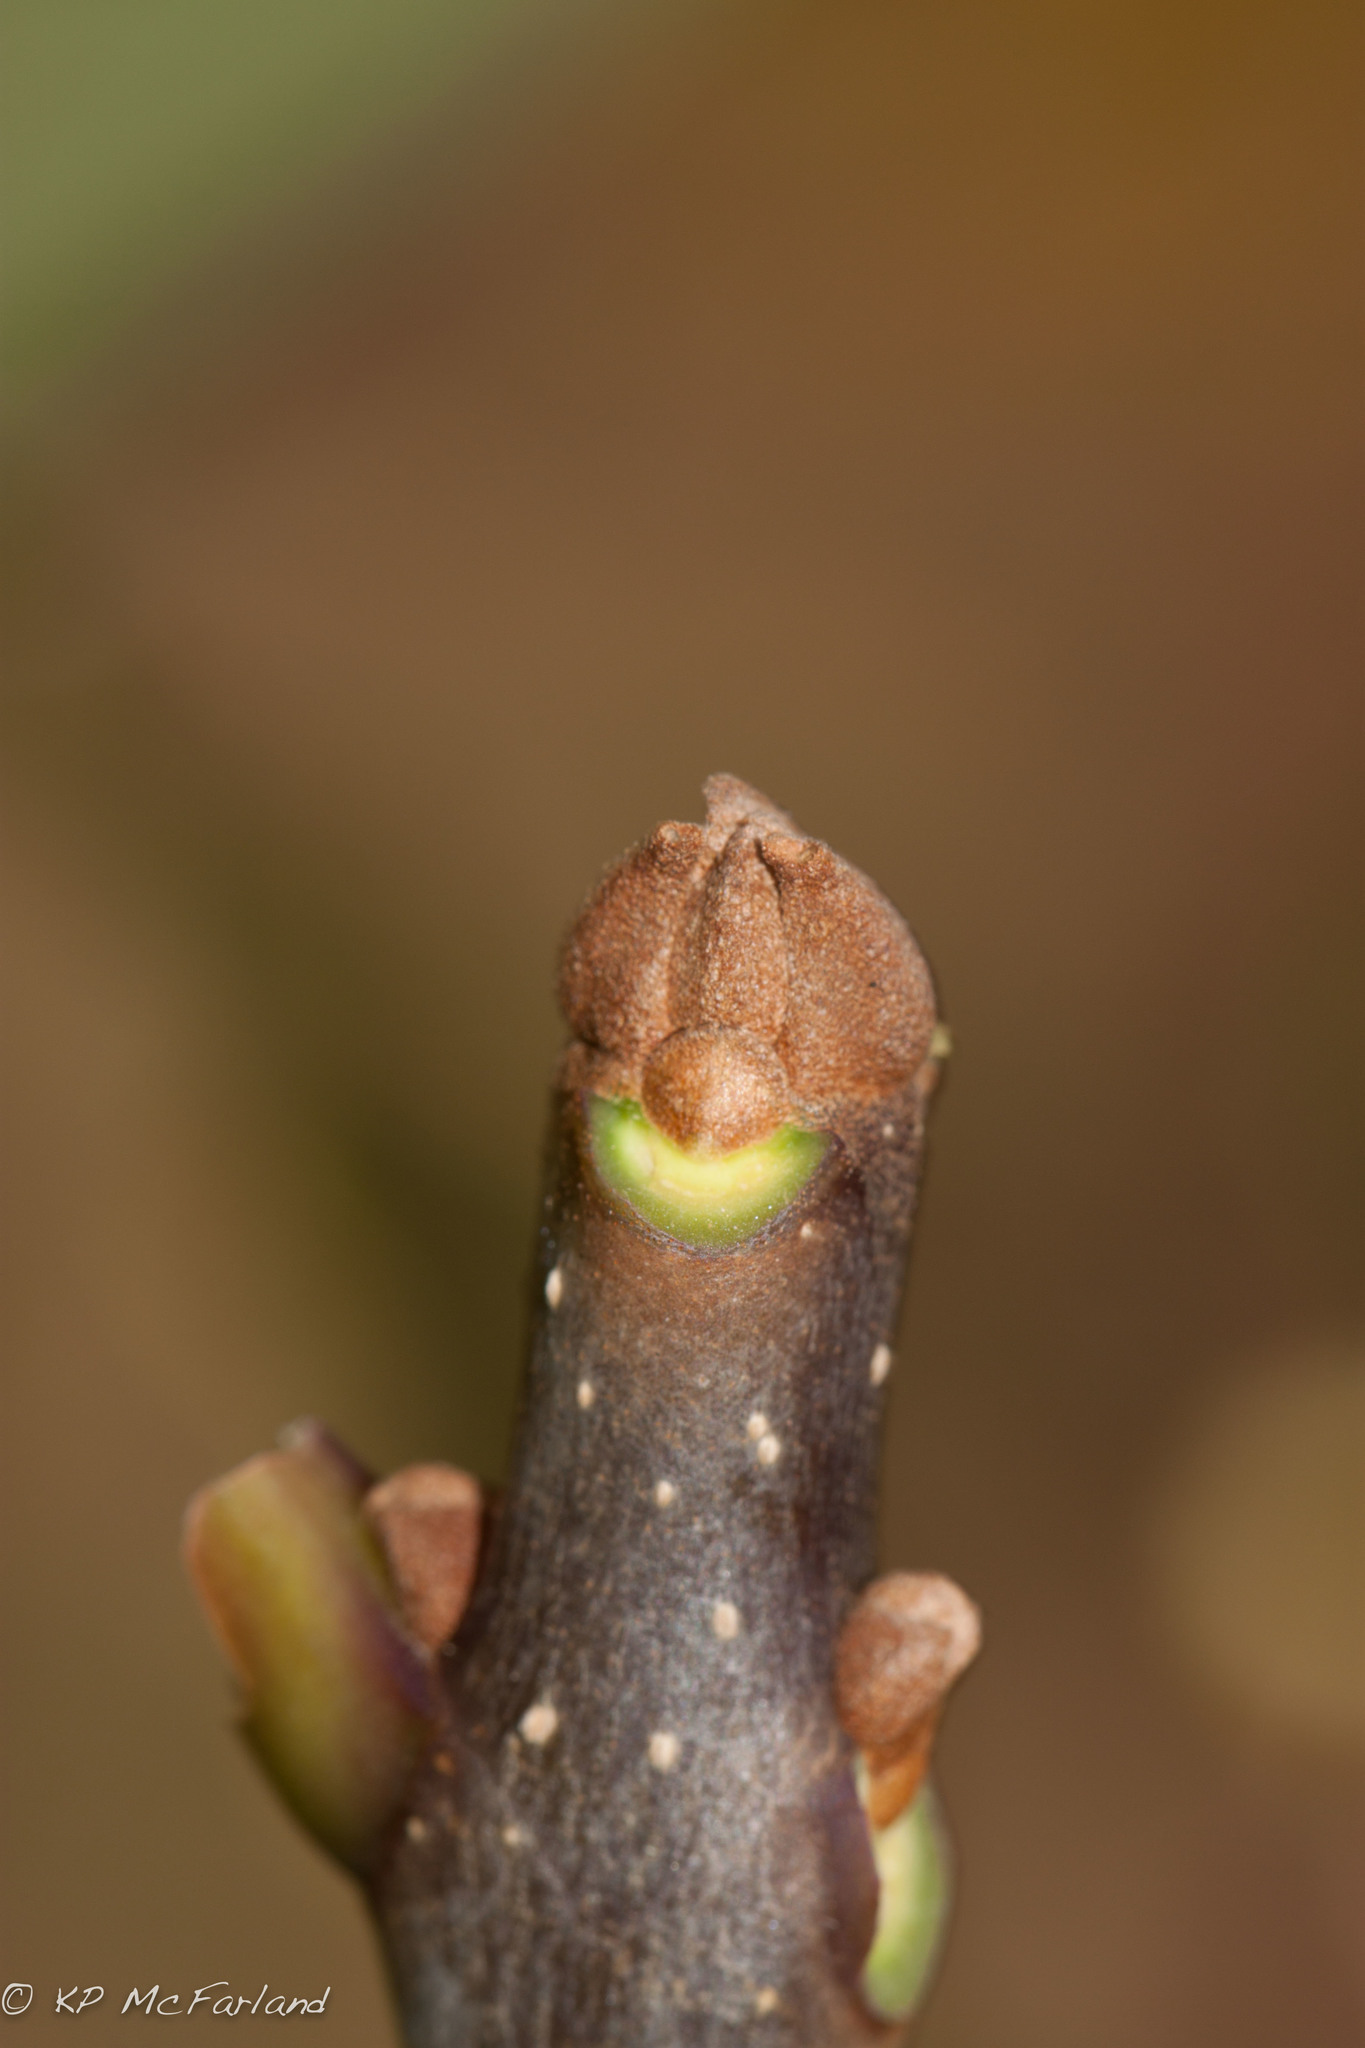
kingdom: Plantae
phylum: Tracheophyta
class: Magnoliopsida
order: Lamiales
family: Oleaceae
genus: Fraxinus
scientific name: Fraxinus americana
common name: White ash
